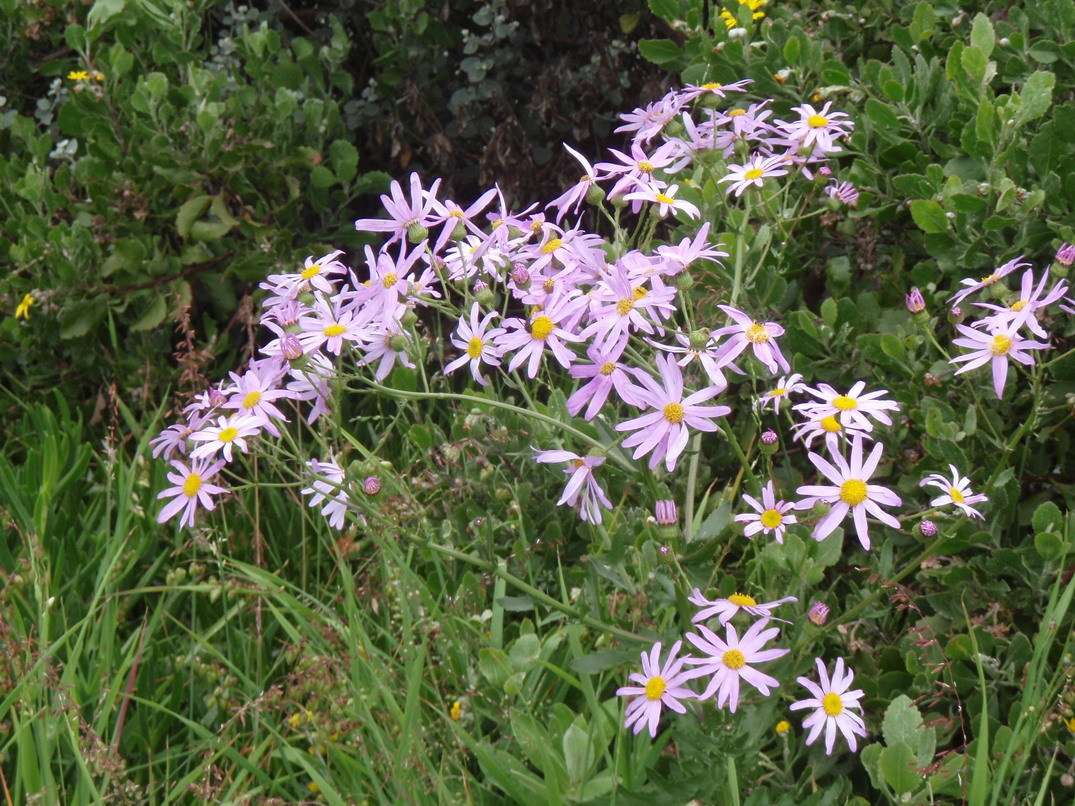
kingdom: Plantae
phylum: Tracheophyta
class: Magnoliopsida
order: Asterales
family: Asteraceae
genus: Senecio
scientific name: Senecio glastifolius
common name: Woad-leaved ragwort
